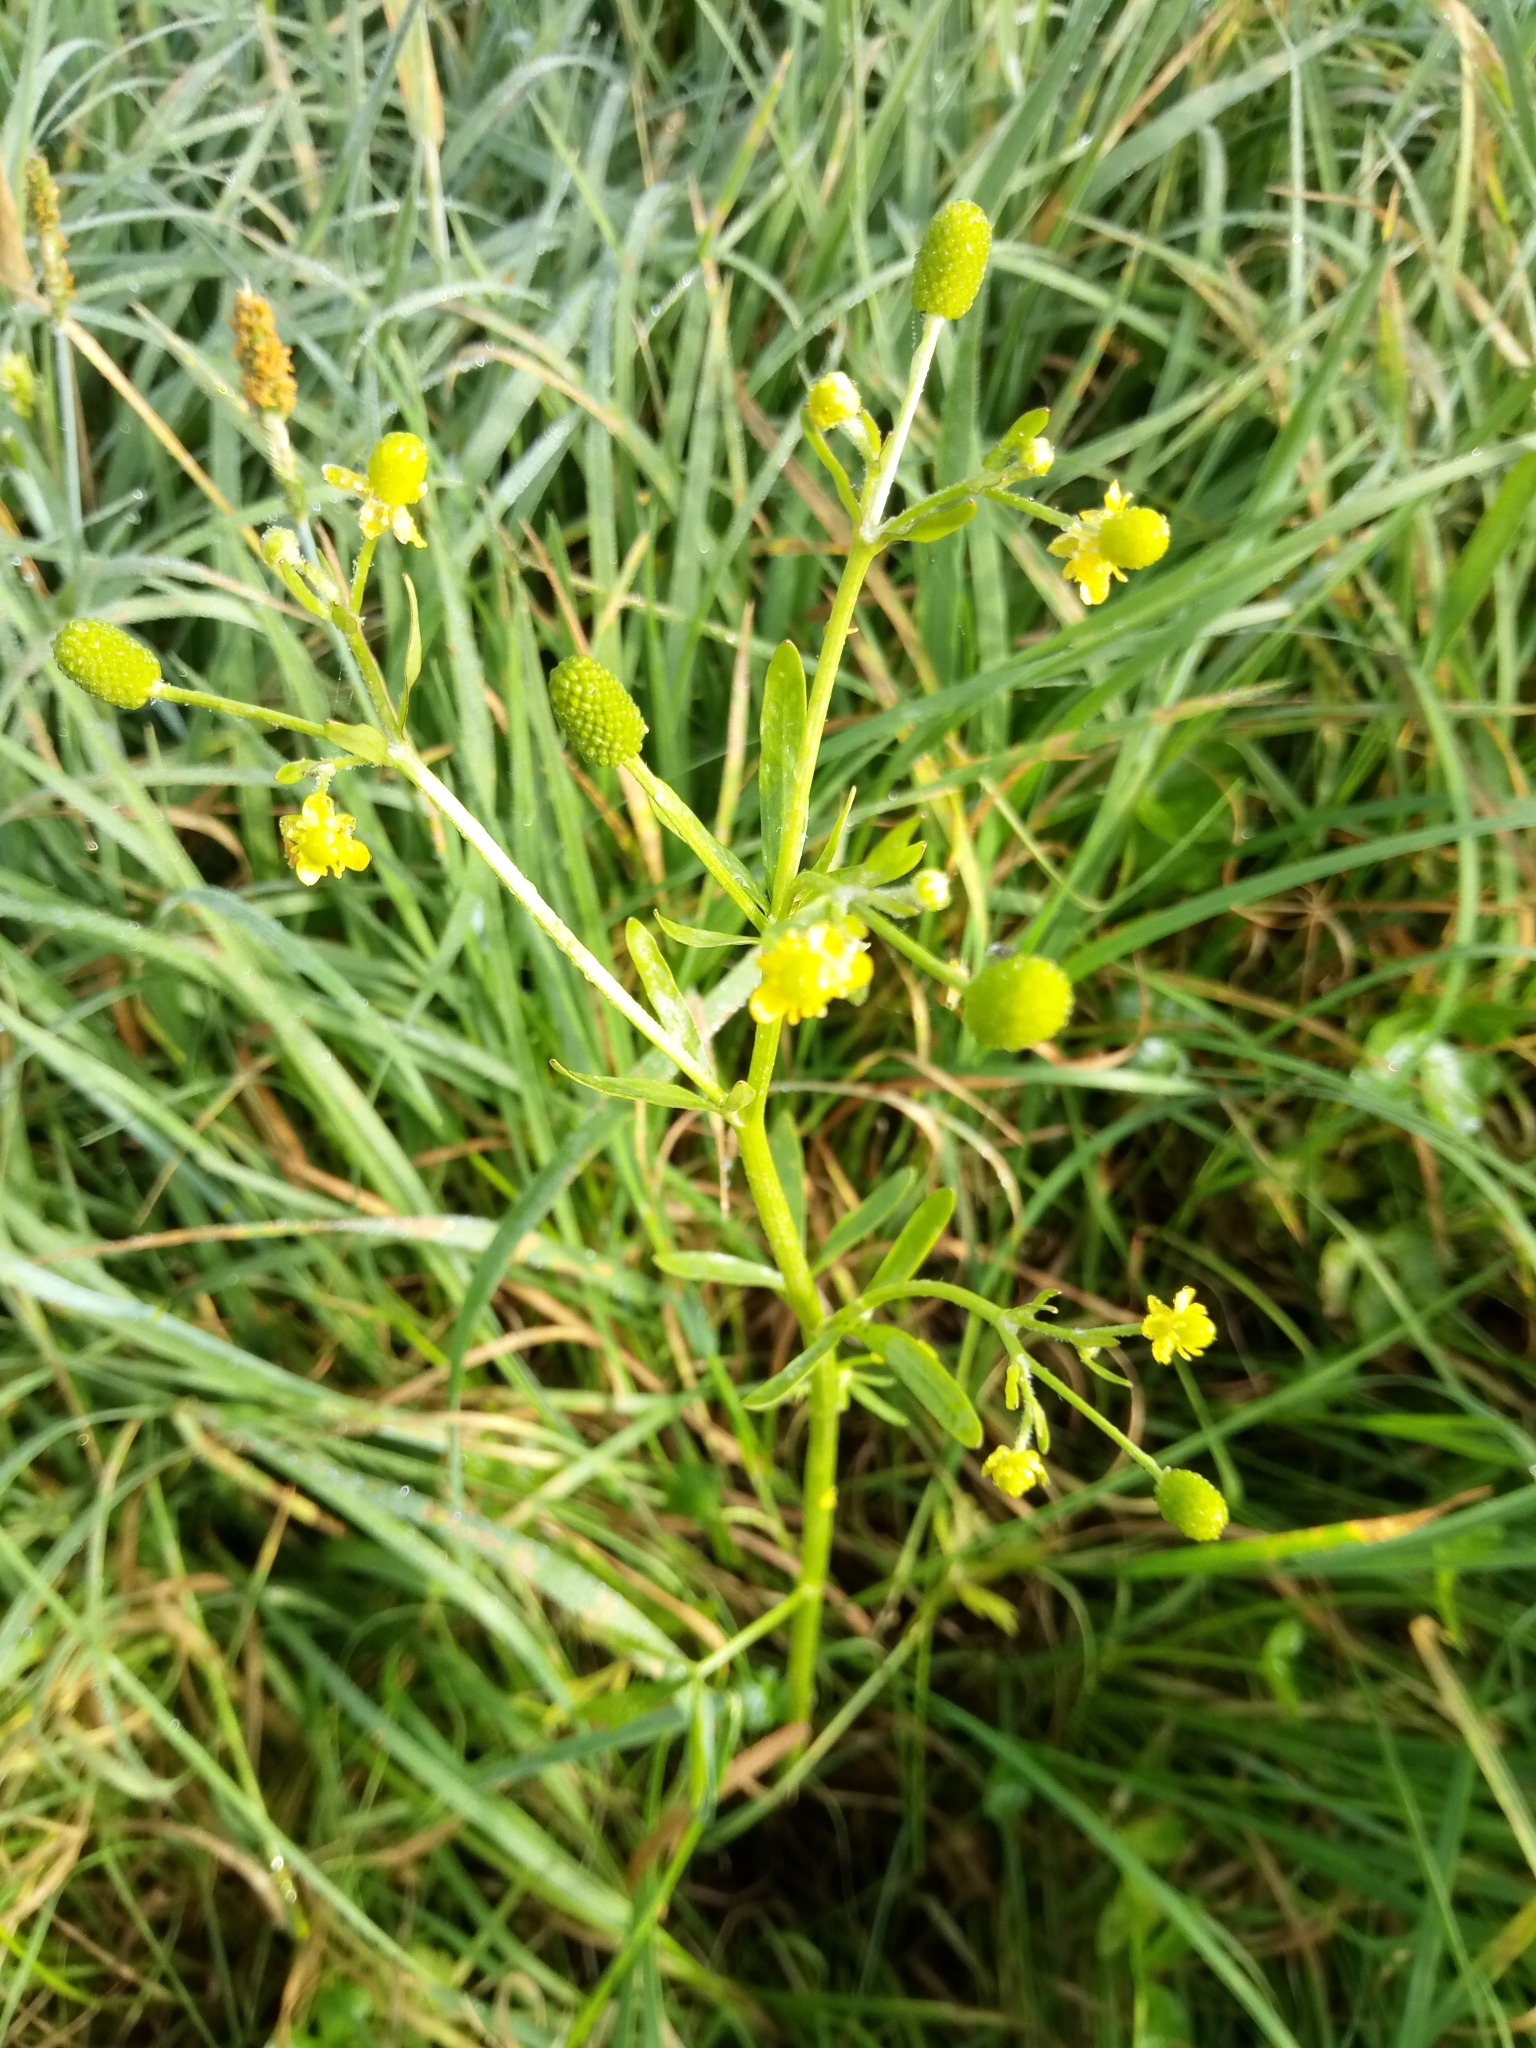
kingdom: Plantae
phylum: Tracheophyta
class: Magnoliopsida
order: Ranunculales
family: Ranunculaceae
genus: Ranunculus
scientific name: Ranunculus sceleratus
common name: Celery-leaved buttercup
